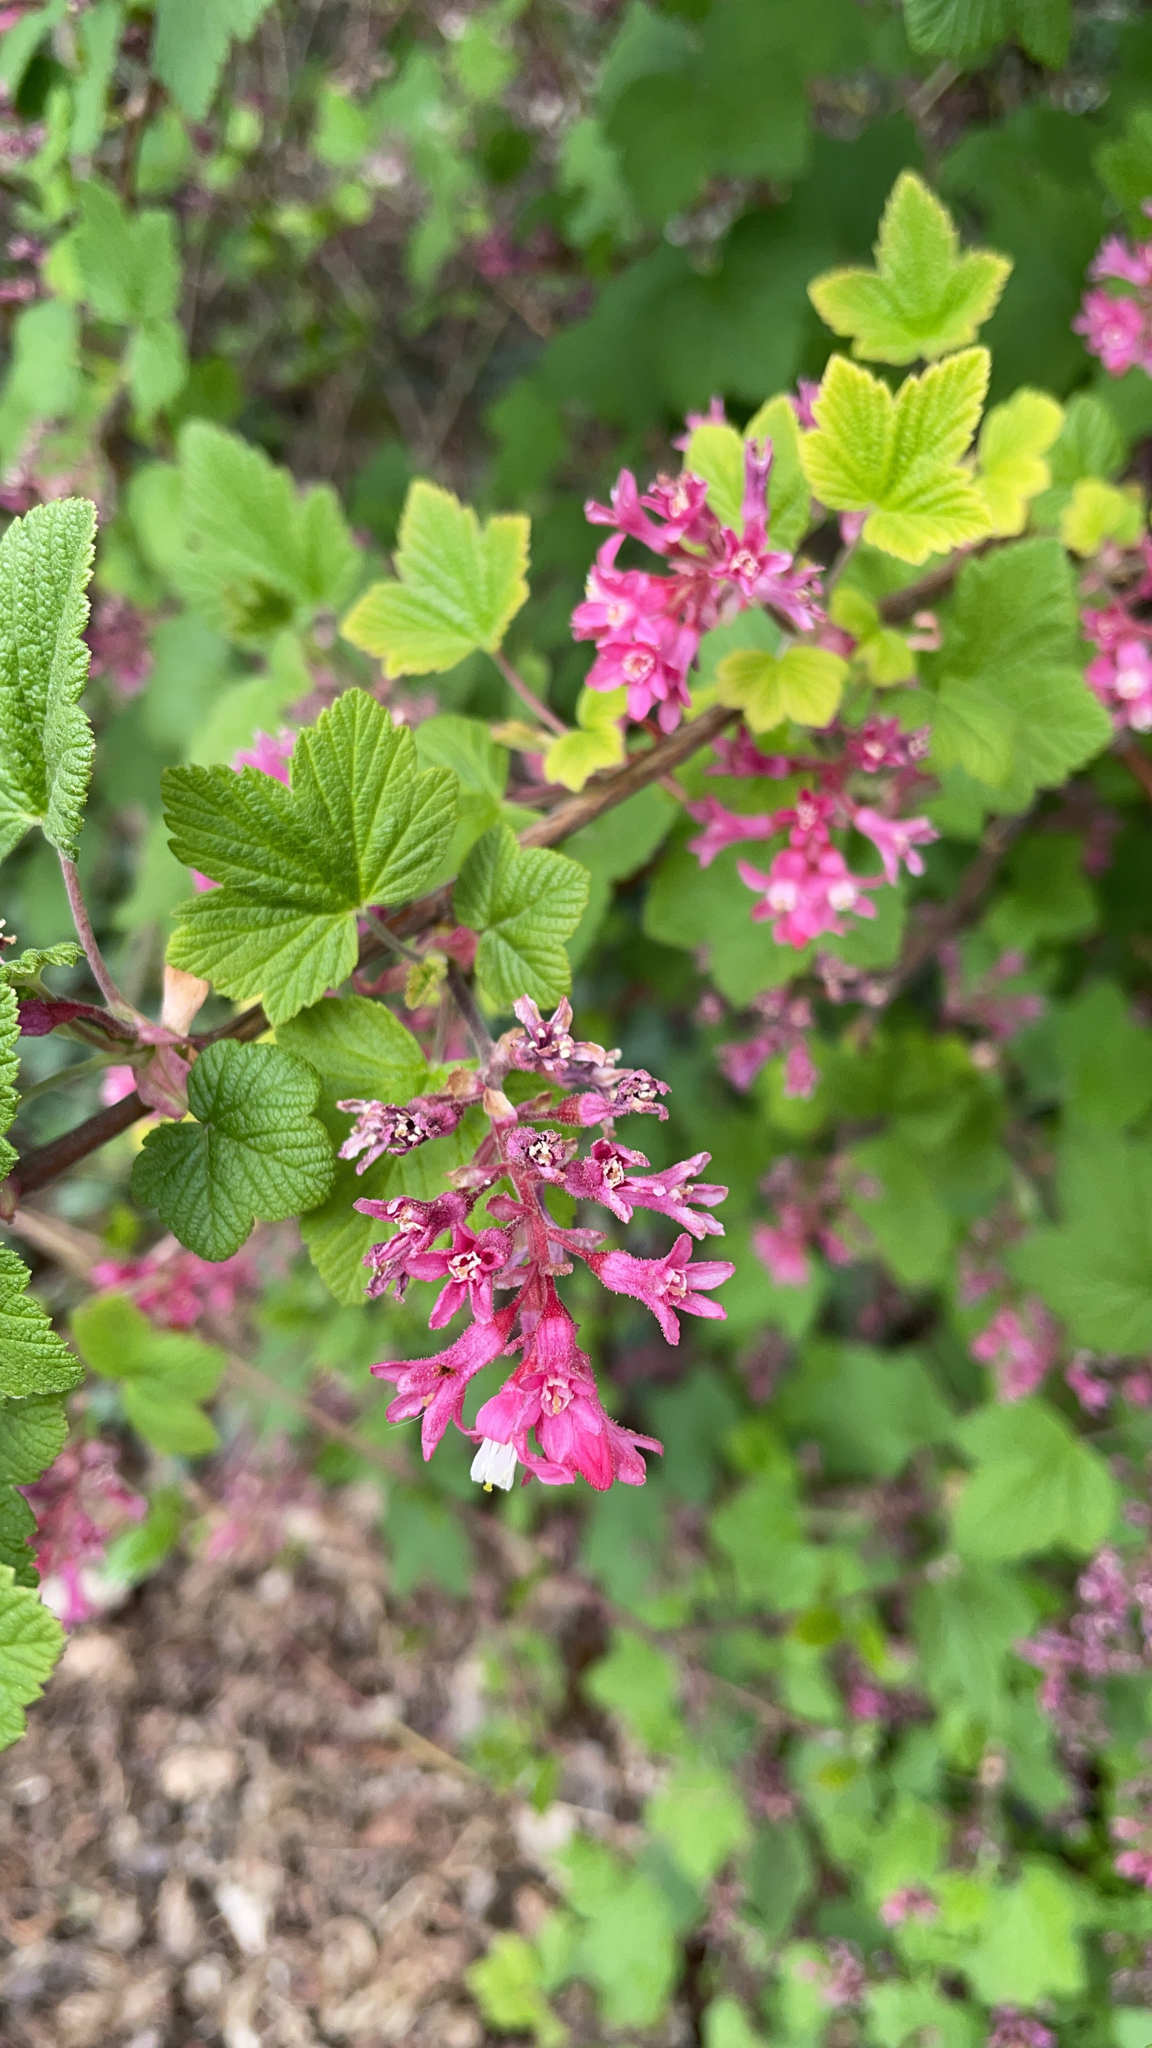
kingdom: Plantae
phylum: Tracheophyta
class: Magnoliopsida
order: Saxifragales
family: Grossulariaceae
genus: Ribes
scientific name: Ribes sanguineum
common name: Flowering currant
